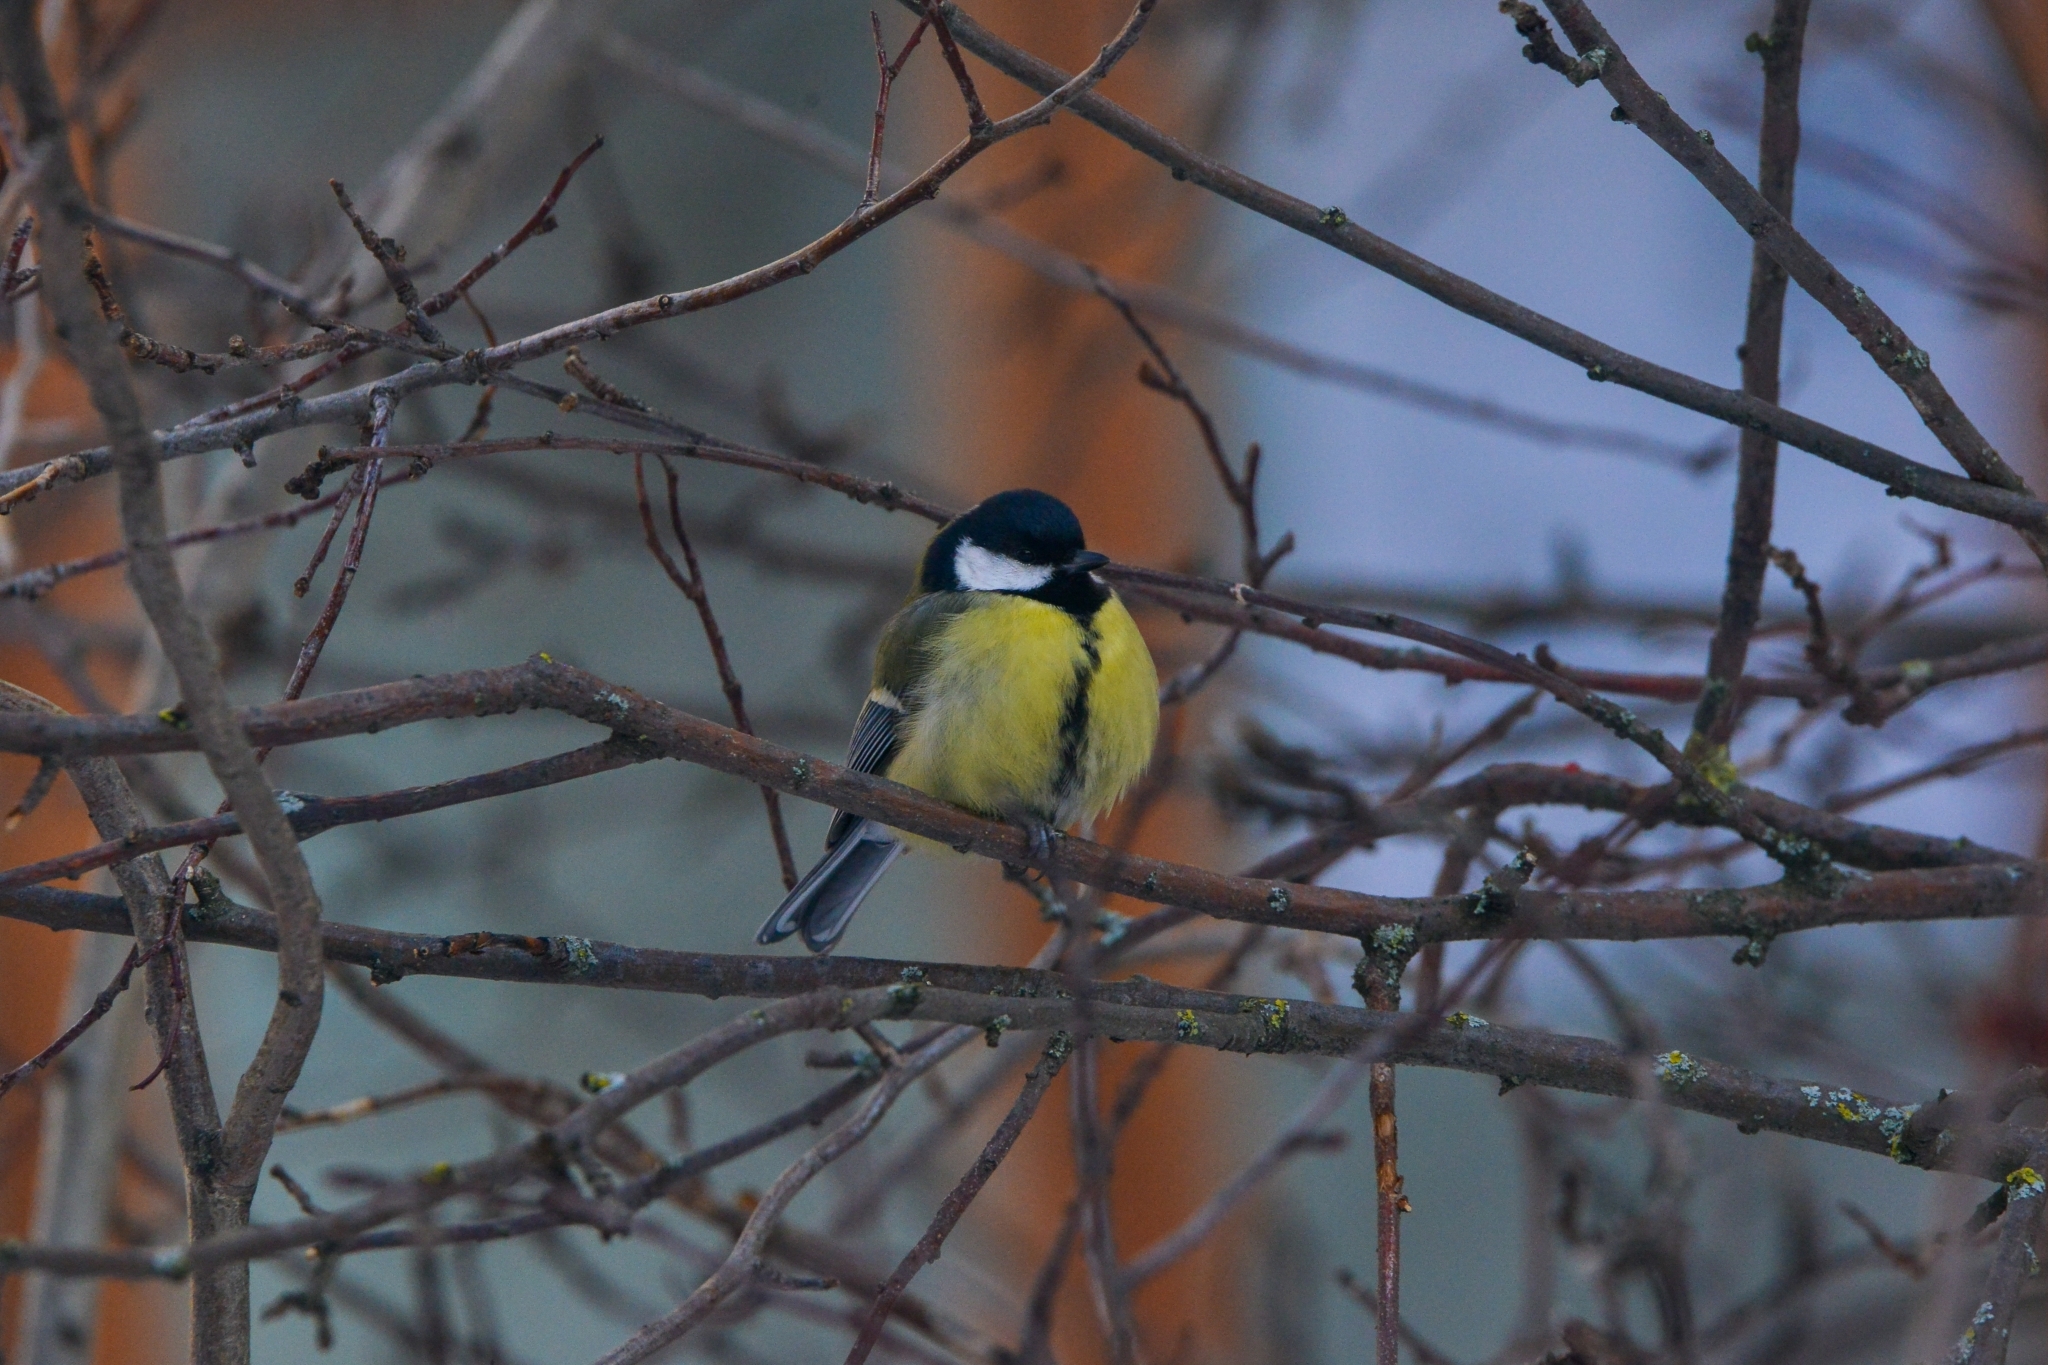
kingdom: Animalia
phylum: Chordata
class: Aves
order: Passeriformes
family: Paridae
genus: Parus
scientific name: Parus major
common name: Great tit
